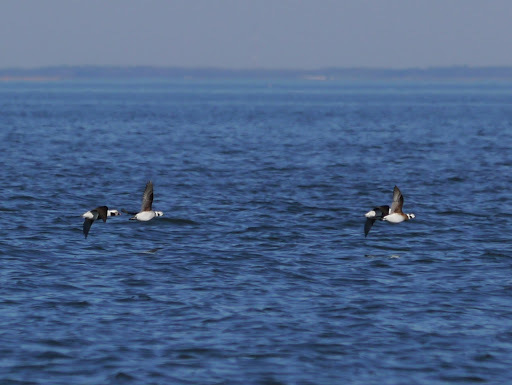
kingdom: Animalia
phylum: Chordata
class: Aves
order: Anseriformes
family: Anatidae
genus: Clangula
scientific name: Clangula hyemalis
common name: Long-tailed duck
